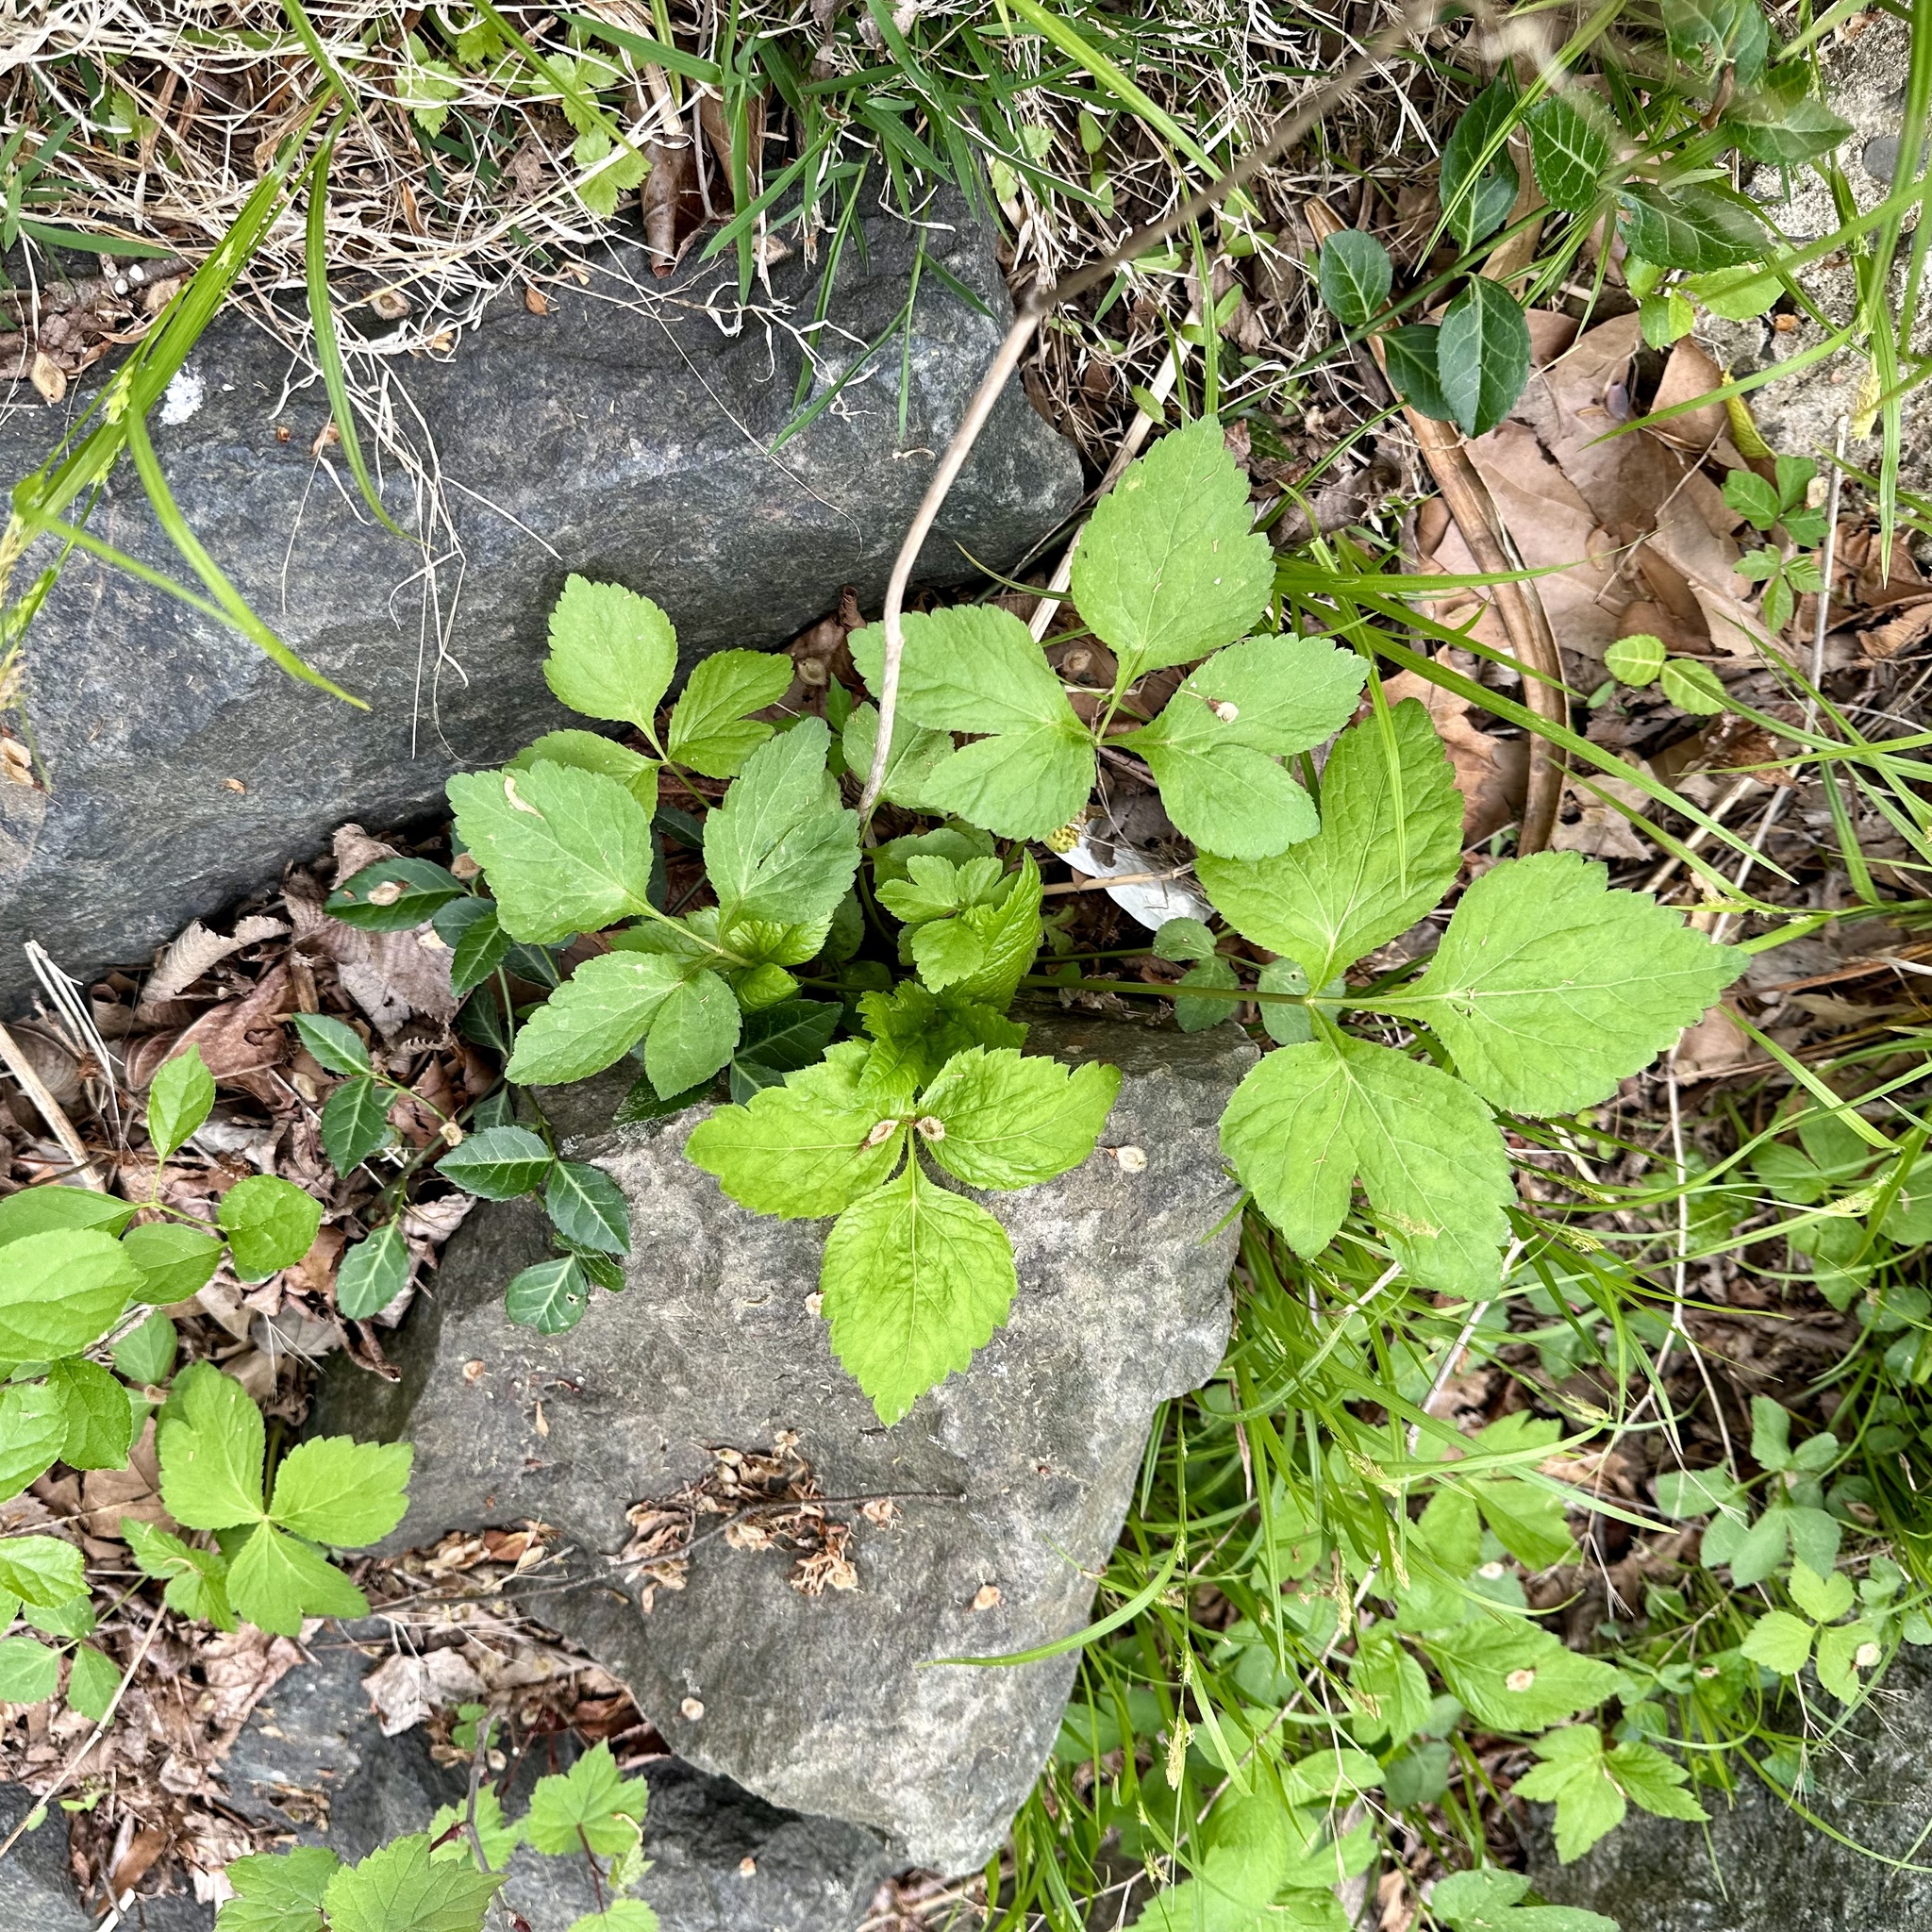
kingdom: Plantae
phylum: Tracheophyta
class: Magnoliopsida
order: Apiales
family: Apiaceae
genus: Cryptotaenia
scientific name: Cryptotaenia canadensis
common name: Honewort
